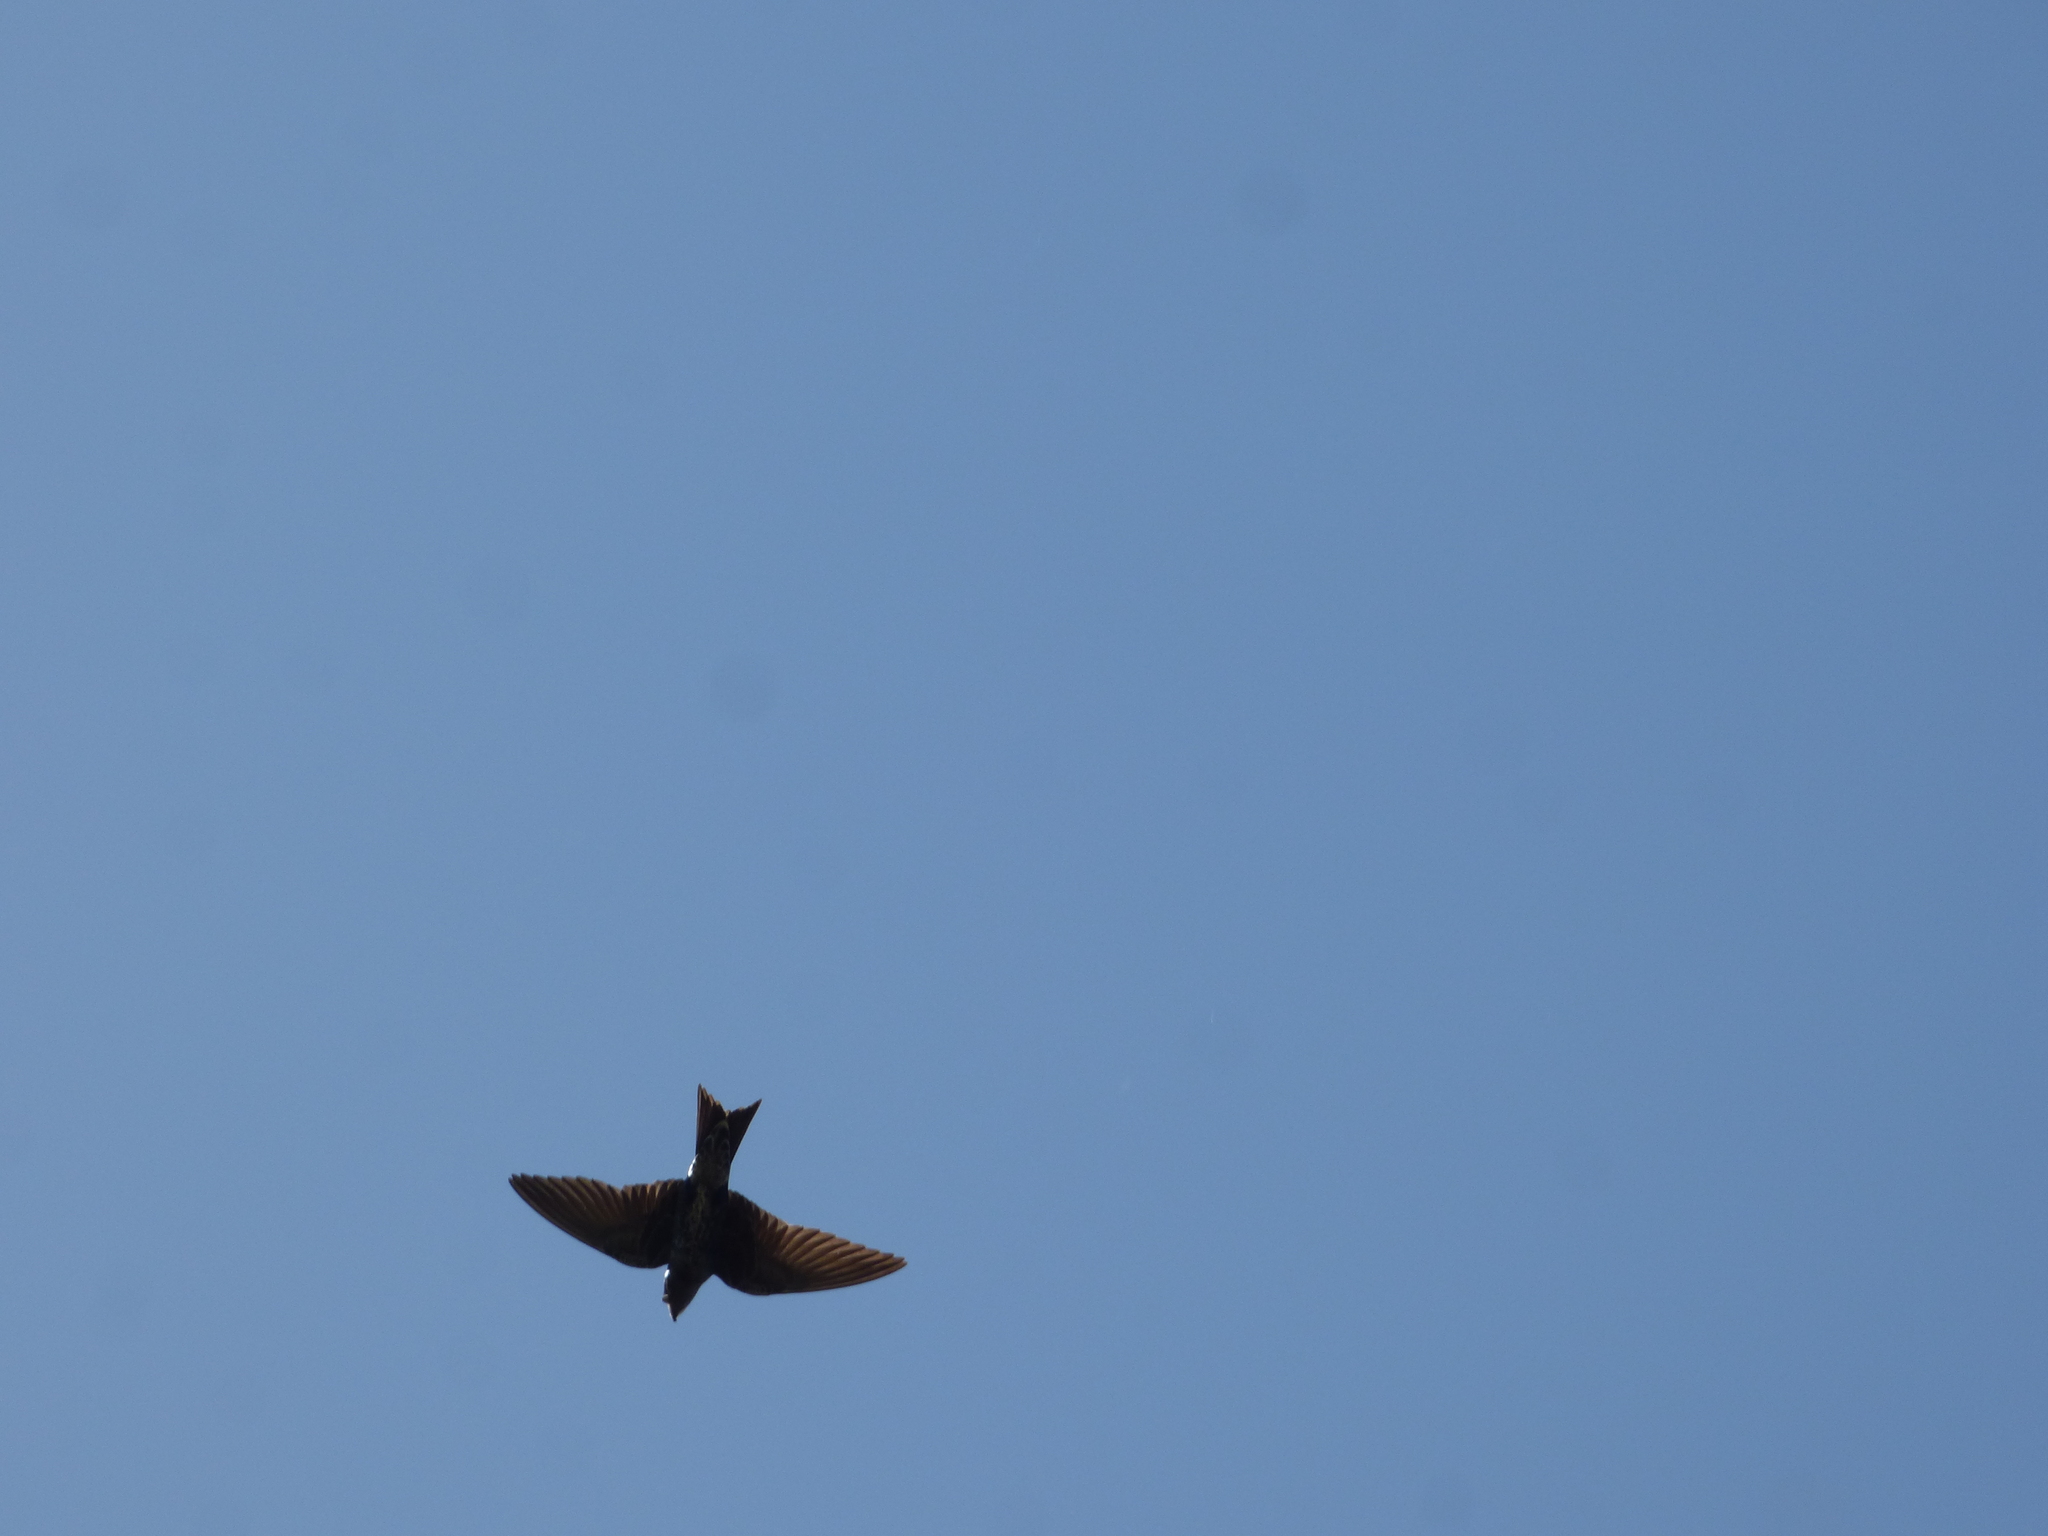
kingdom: Animalia
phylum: Chordata
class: Aves
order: Passeriformes
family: Hirundinidae
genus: Progne
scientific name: Progne elegans
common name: Southern martin
